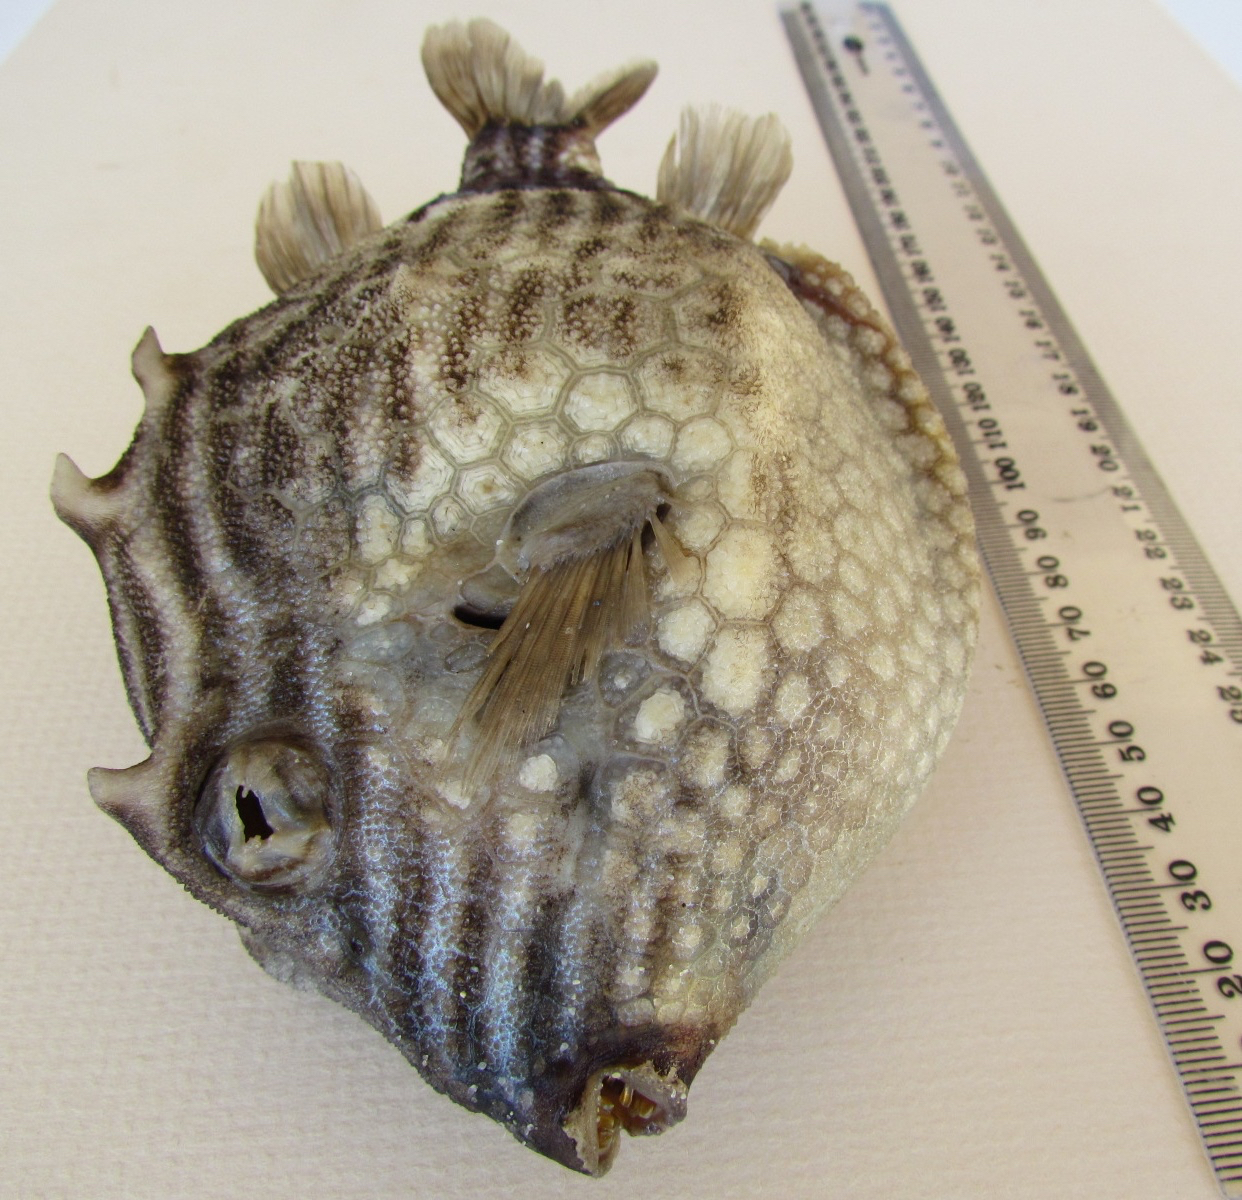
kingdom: Animalia
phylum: Chordata
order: Tetraodontiformes
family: Aracanidae
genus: Aracana
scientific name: Aracana aurita
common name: Shaw’s cowfish
